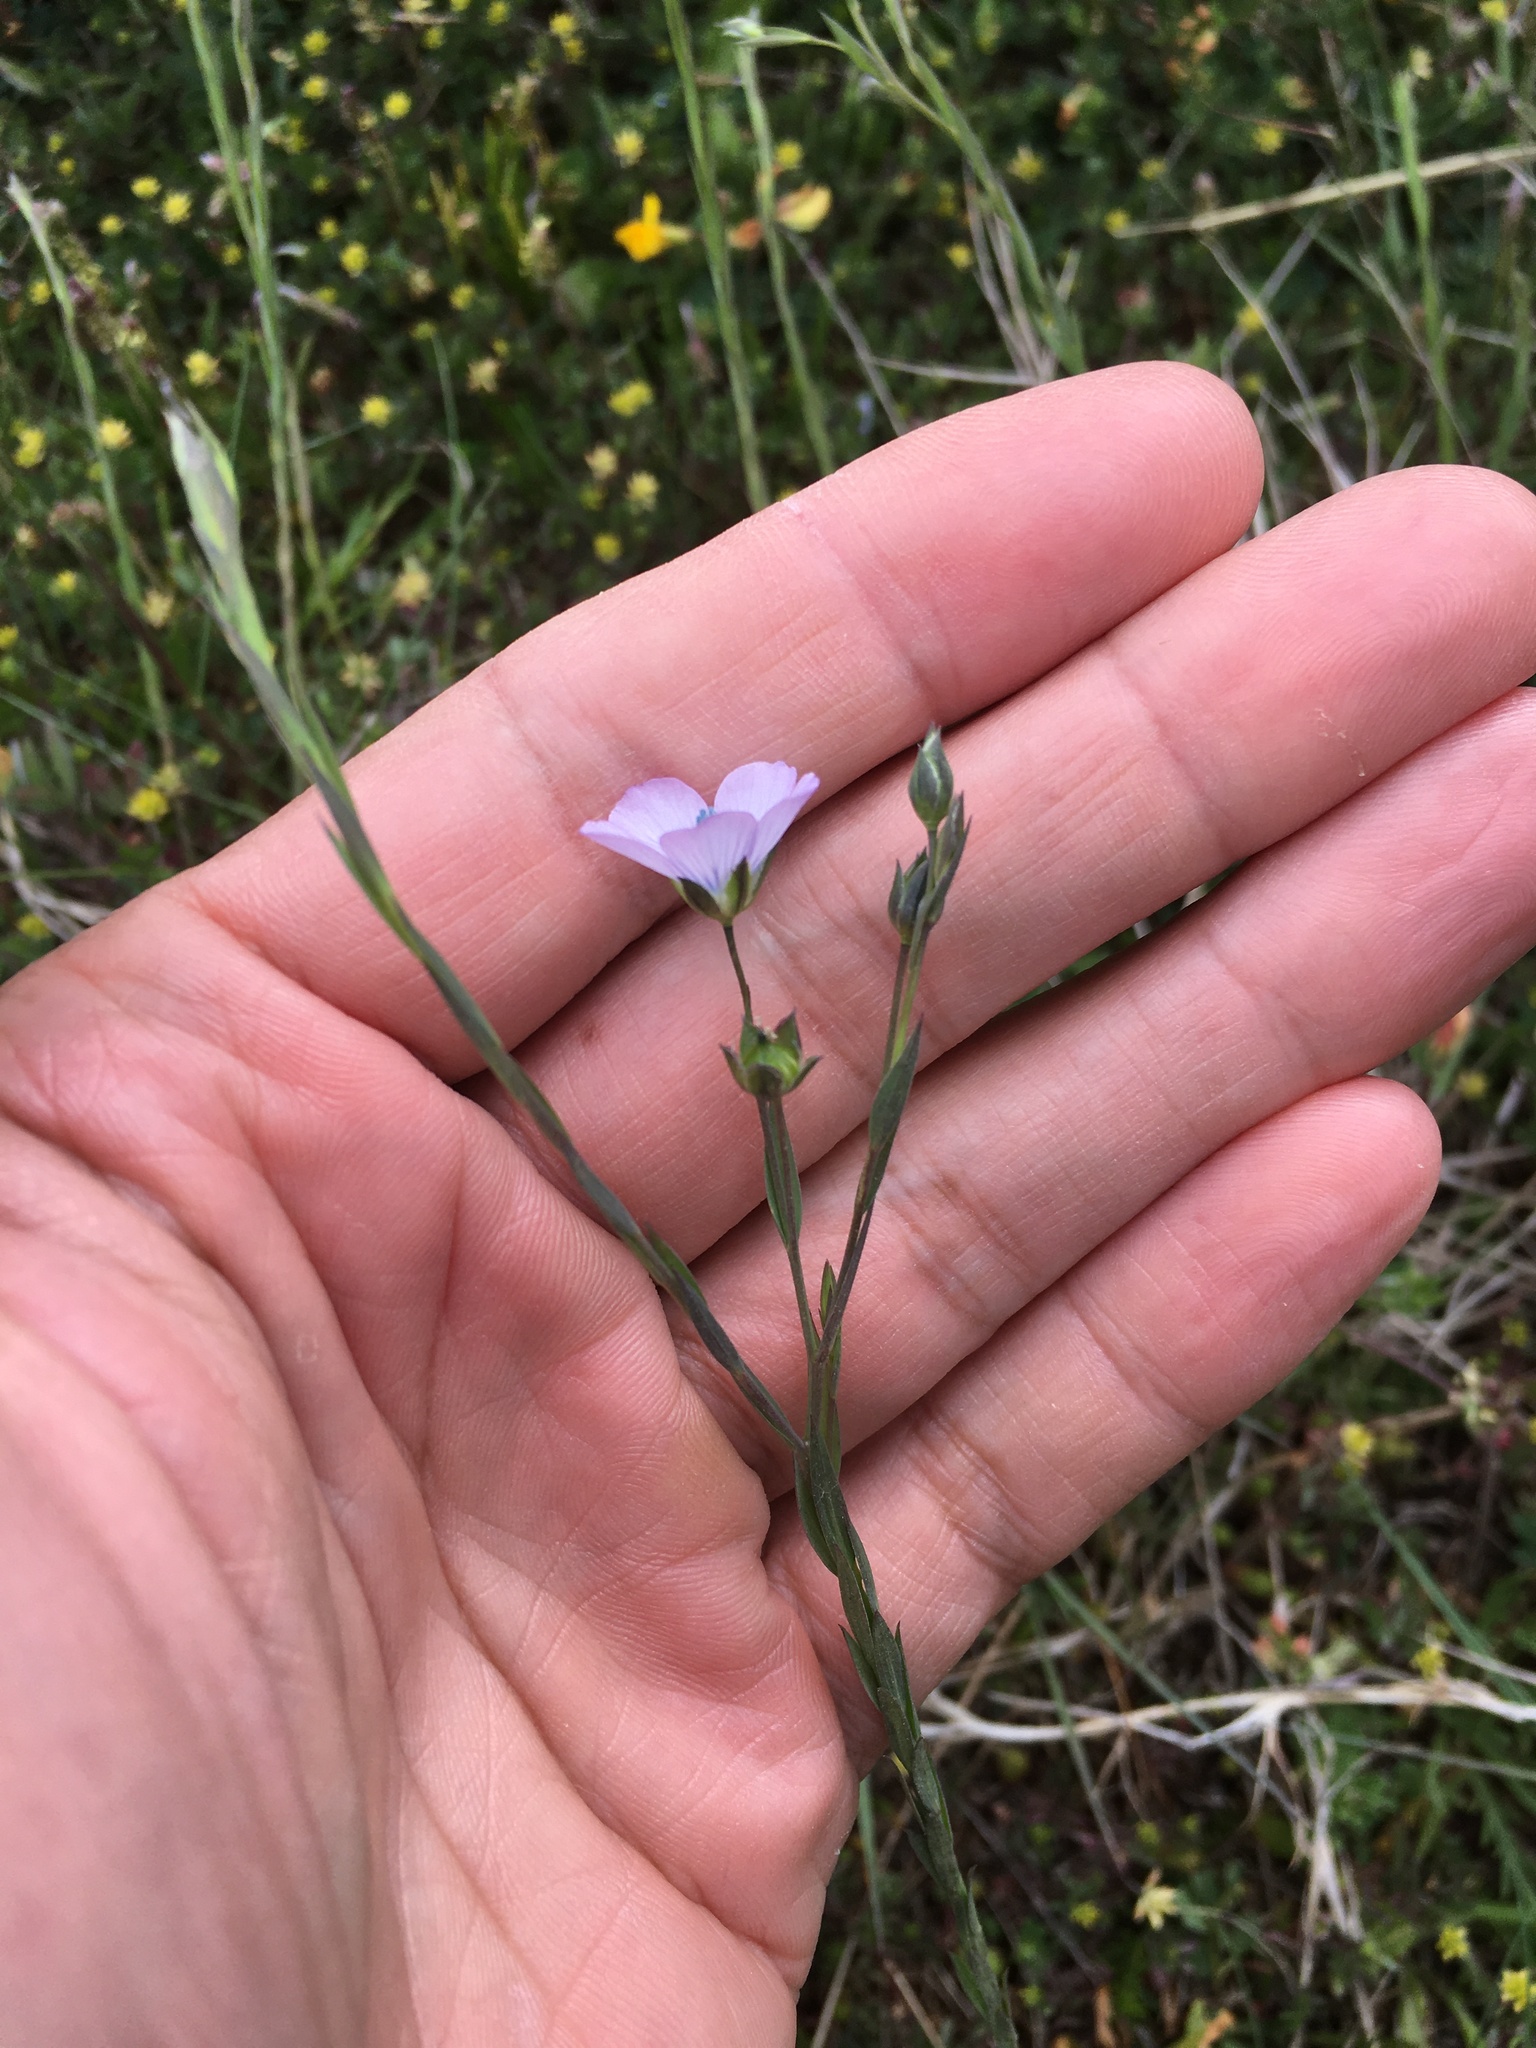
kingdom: Plantae
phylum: Tracheophyta
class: Magnoliopsida
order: Malpighiales
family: Linaceae
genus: Linum
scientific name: Linum bienne
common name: Pale flax
